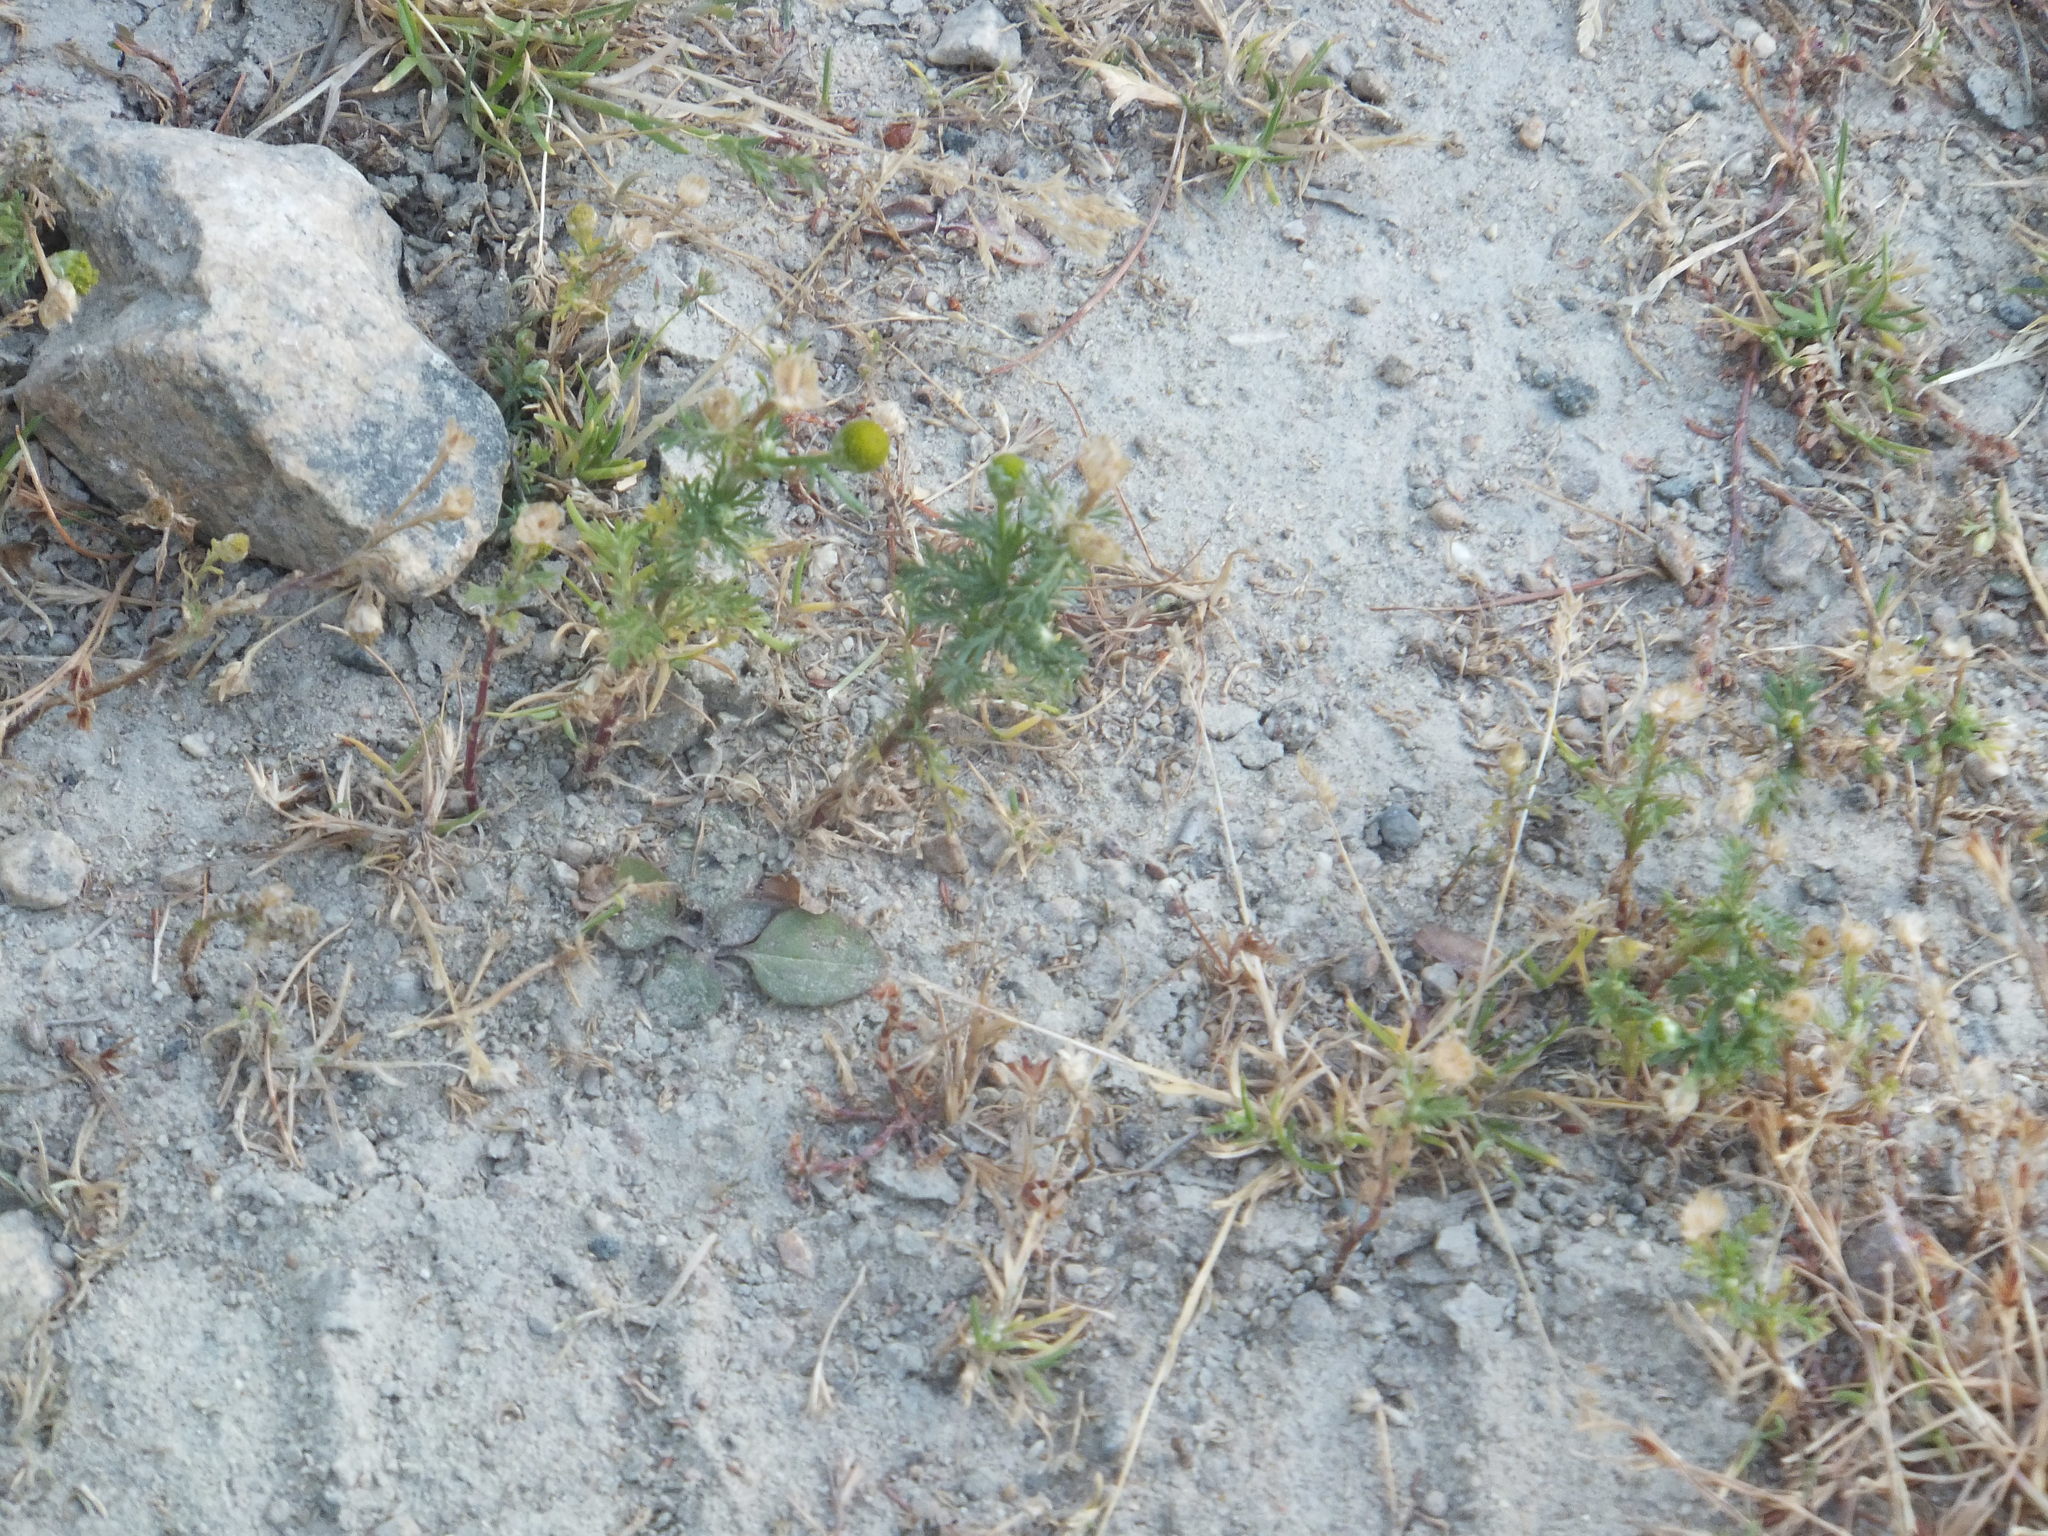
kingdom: Plantae
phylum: Tracheophyta
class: Magnoliopsida
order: Asterales
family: Asteraceae
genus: Matricaria
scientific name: Matricaria discoidea
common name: Disc mayweed
